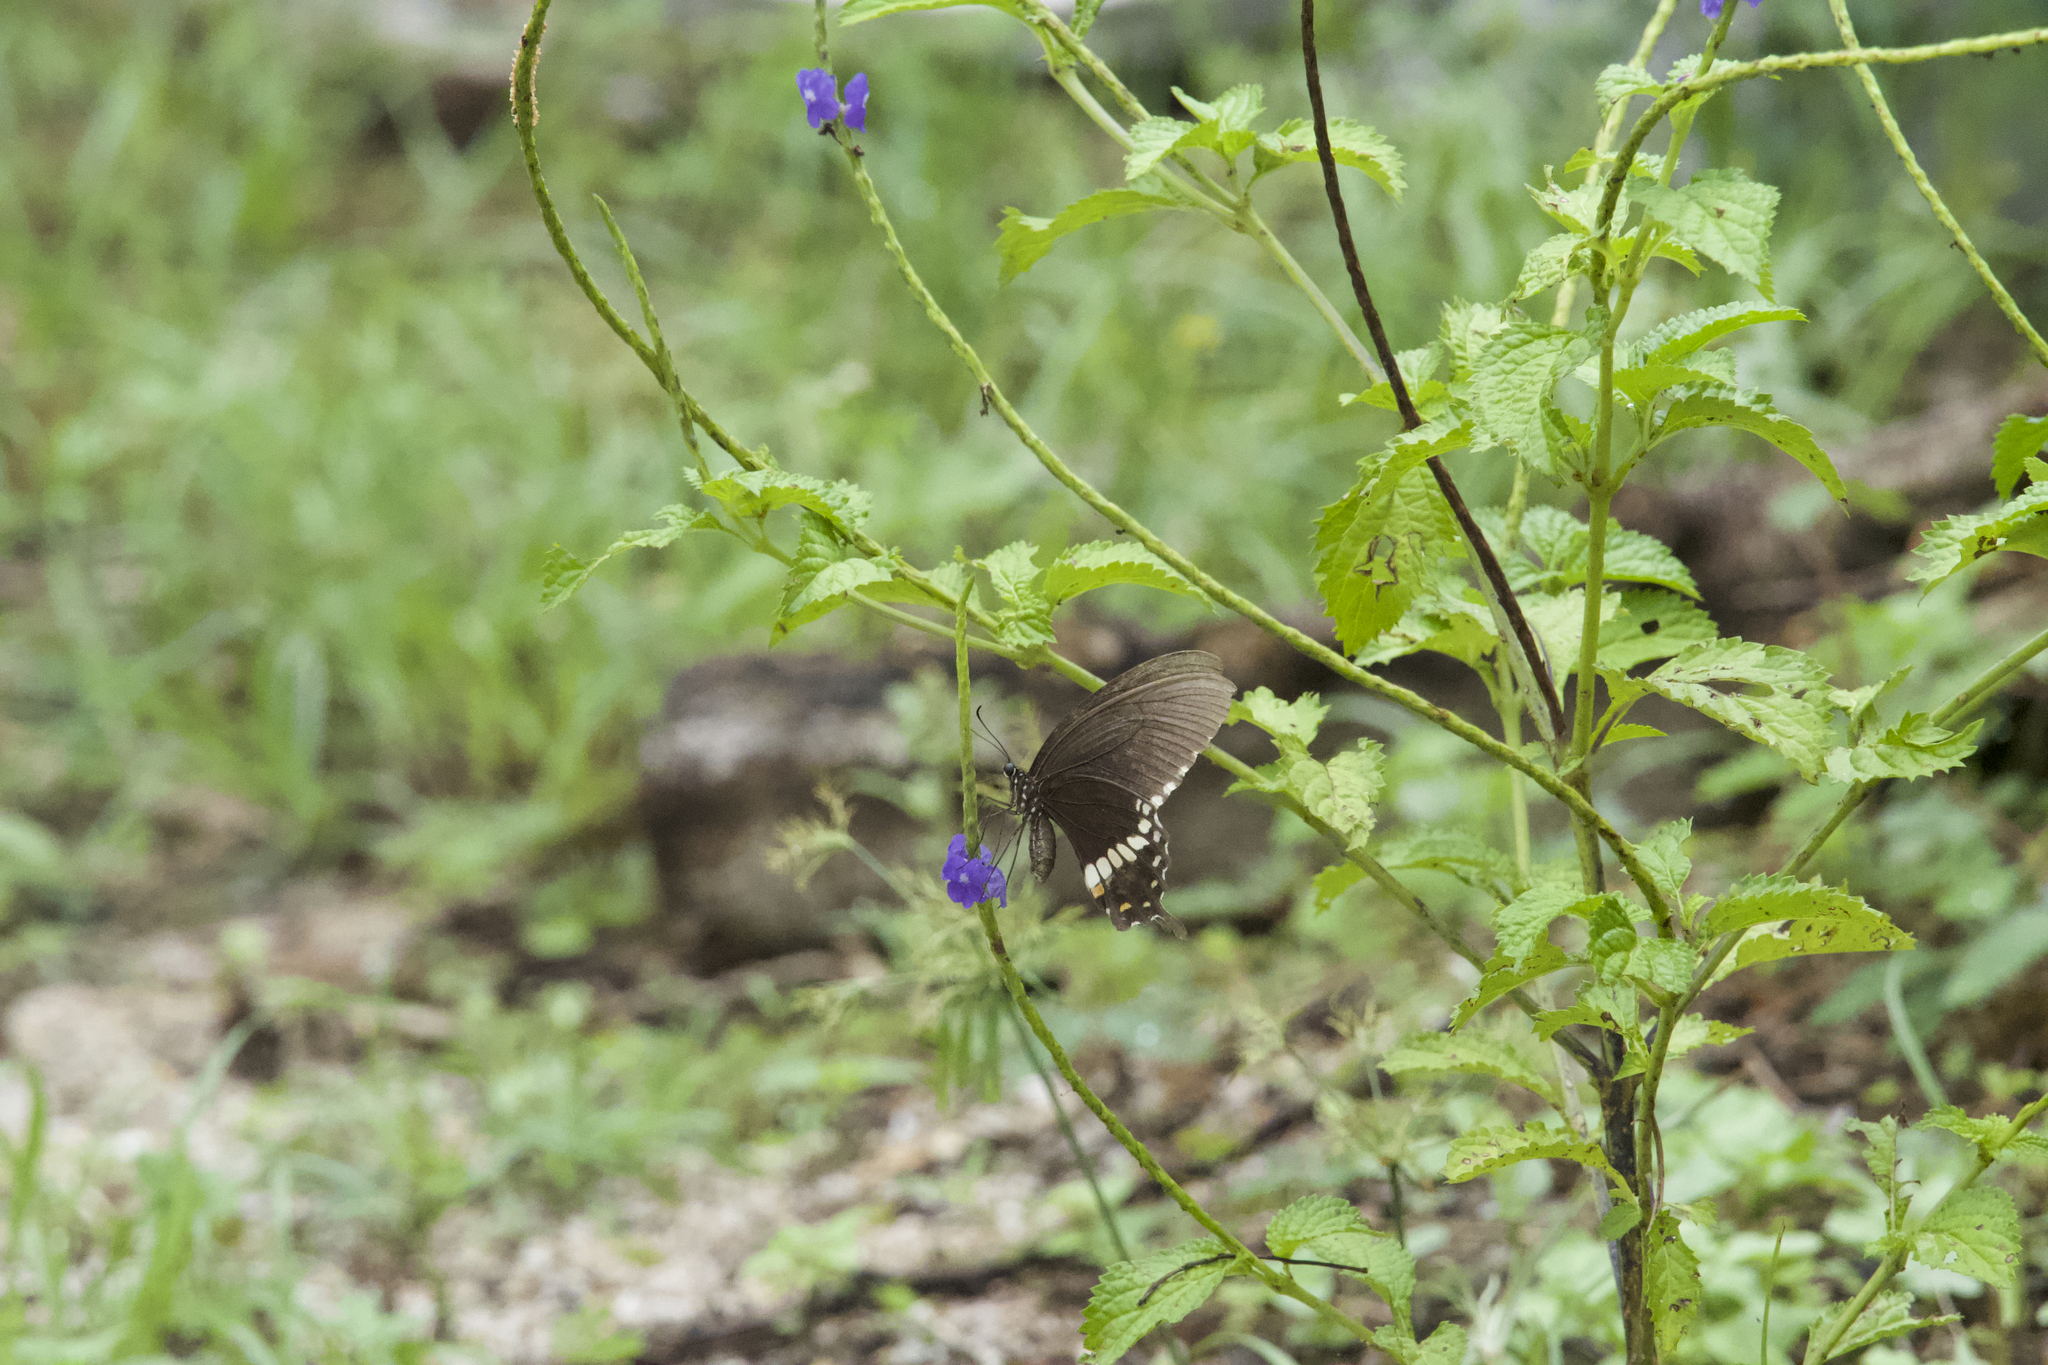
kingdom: Animalia
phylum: Arthropoda
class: Insecta
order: Lepidoptera
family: Papilionidae
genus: Papilio
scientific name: Papilio polytes
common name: Common mormon
